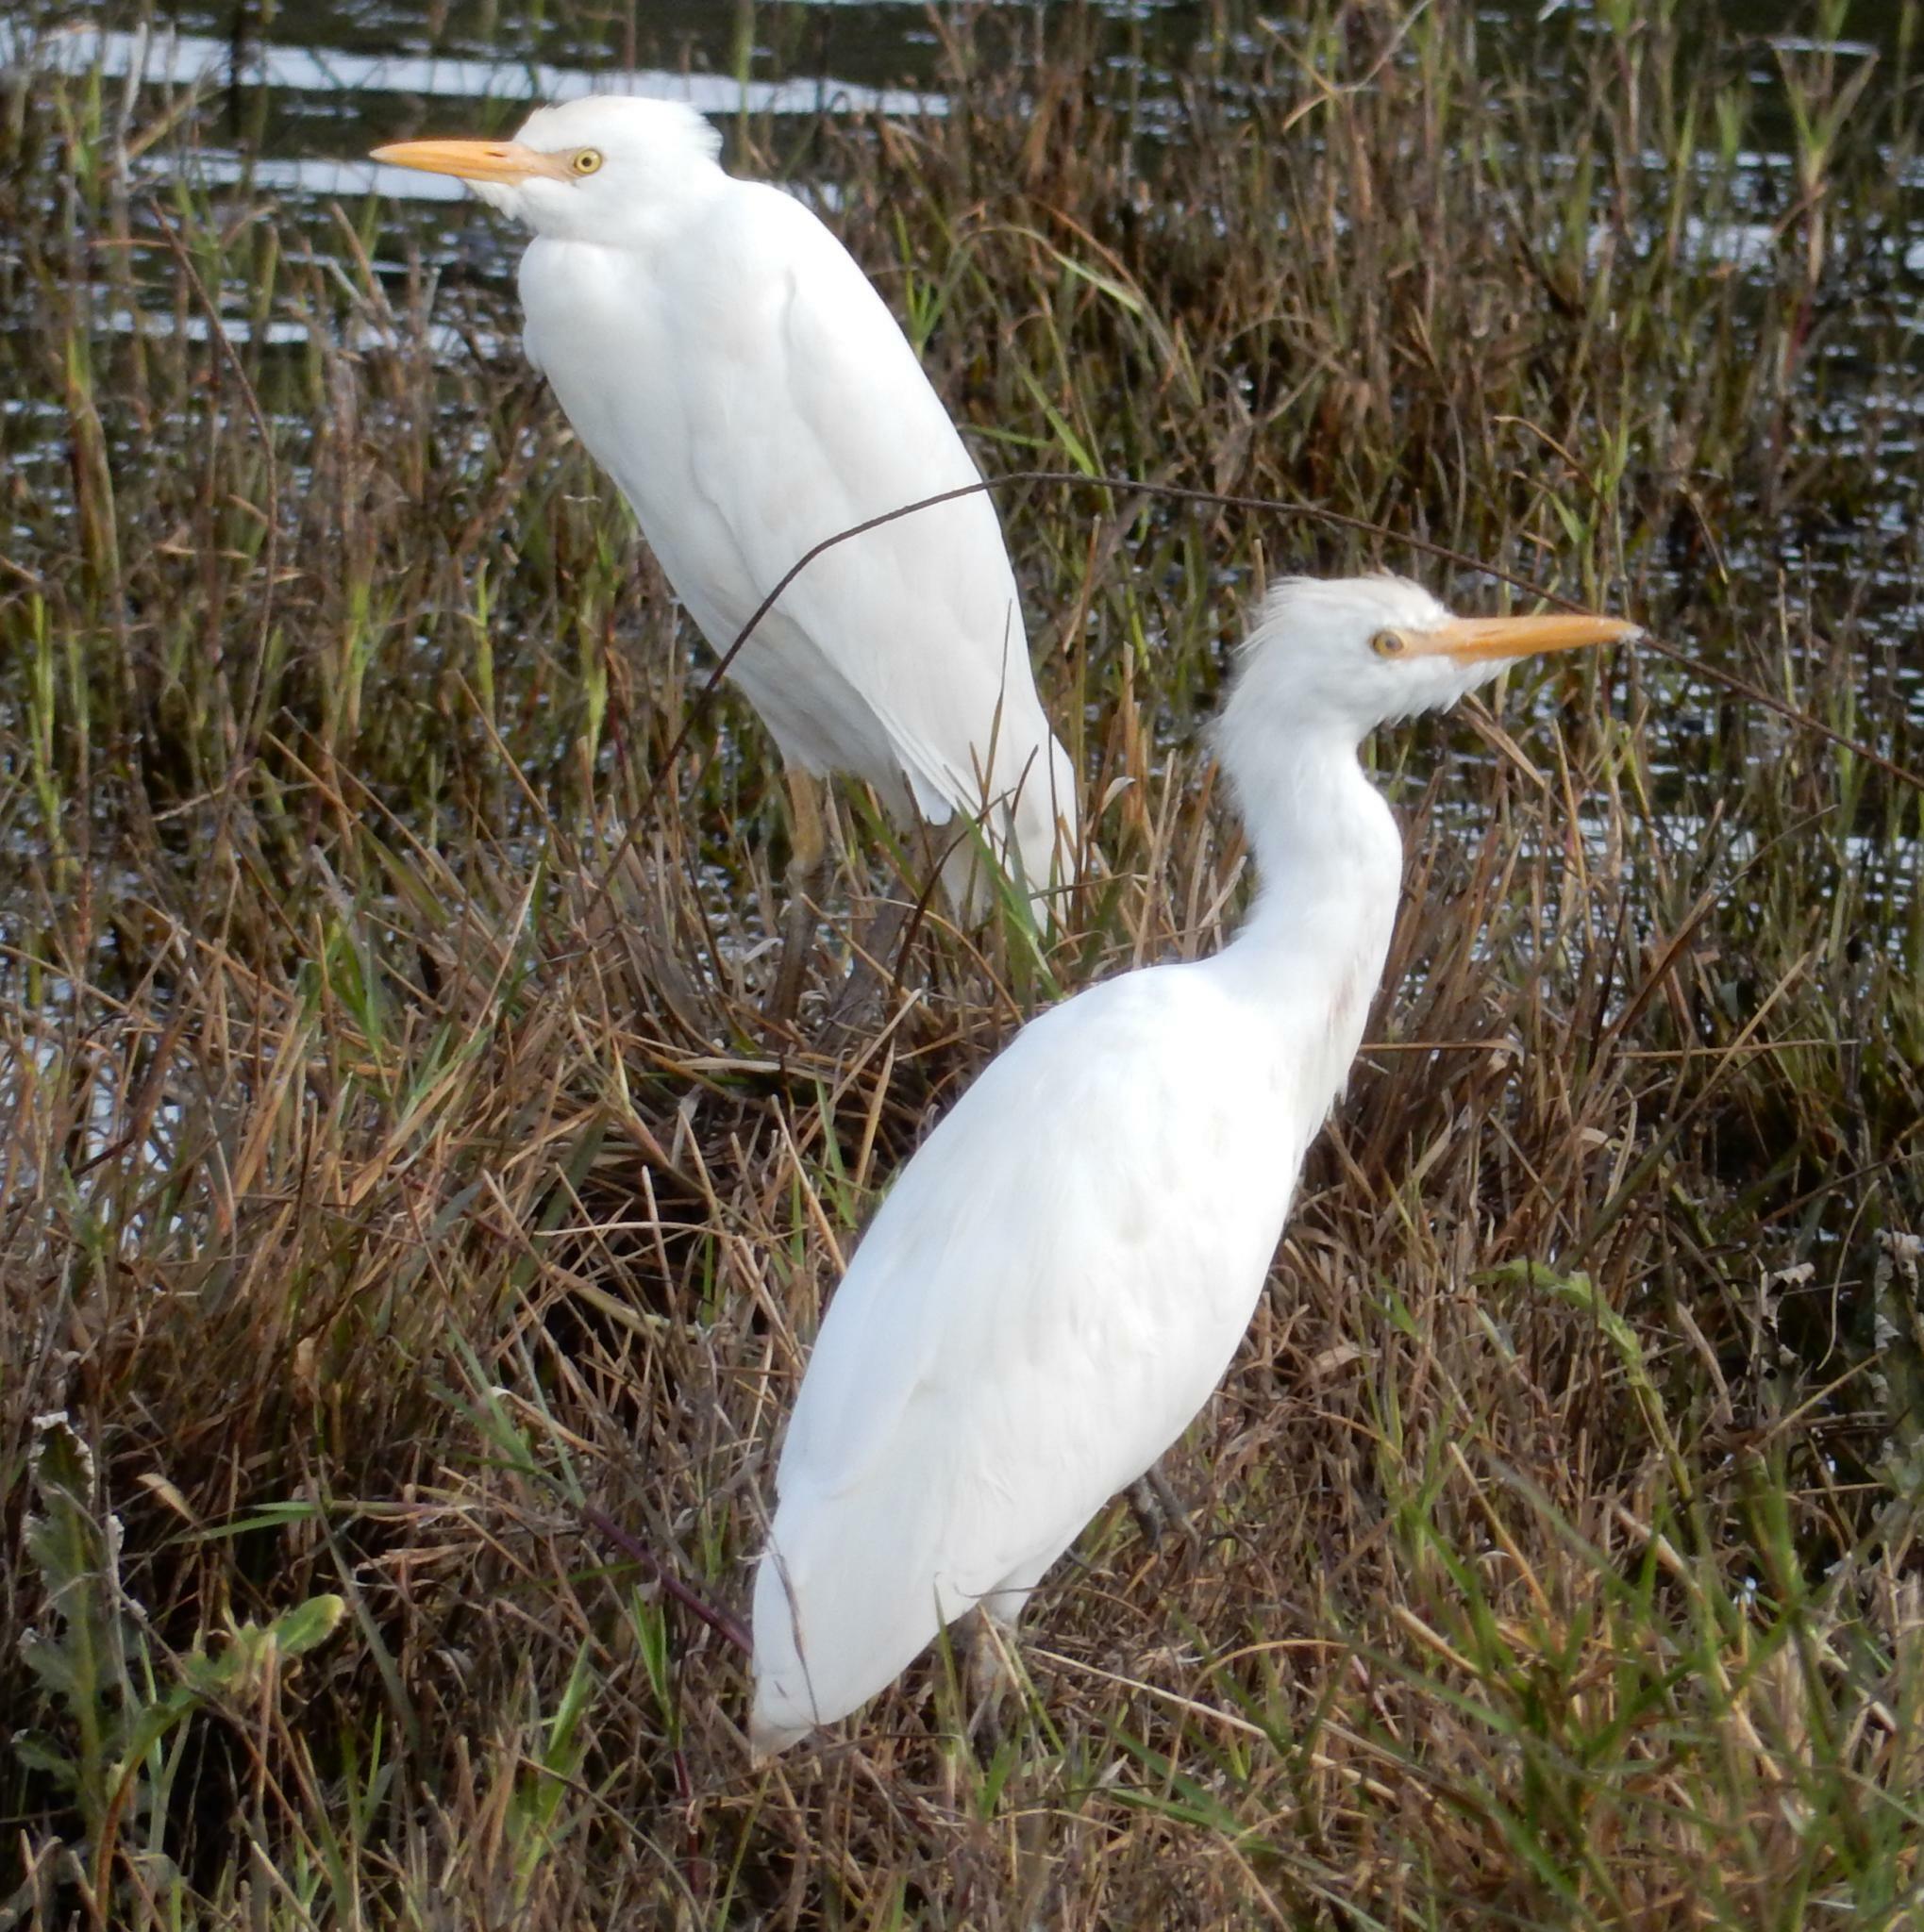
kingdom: Animalia
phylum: Chordata
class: Aves
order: Pelecaniformes
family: Ardeidae
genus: Bubulcus
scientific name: Bubulcus ibis
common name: Cattle egret
